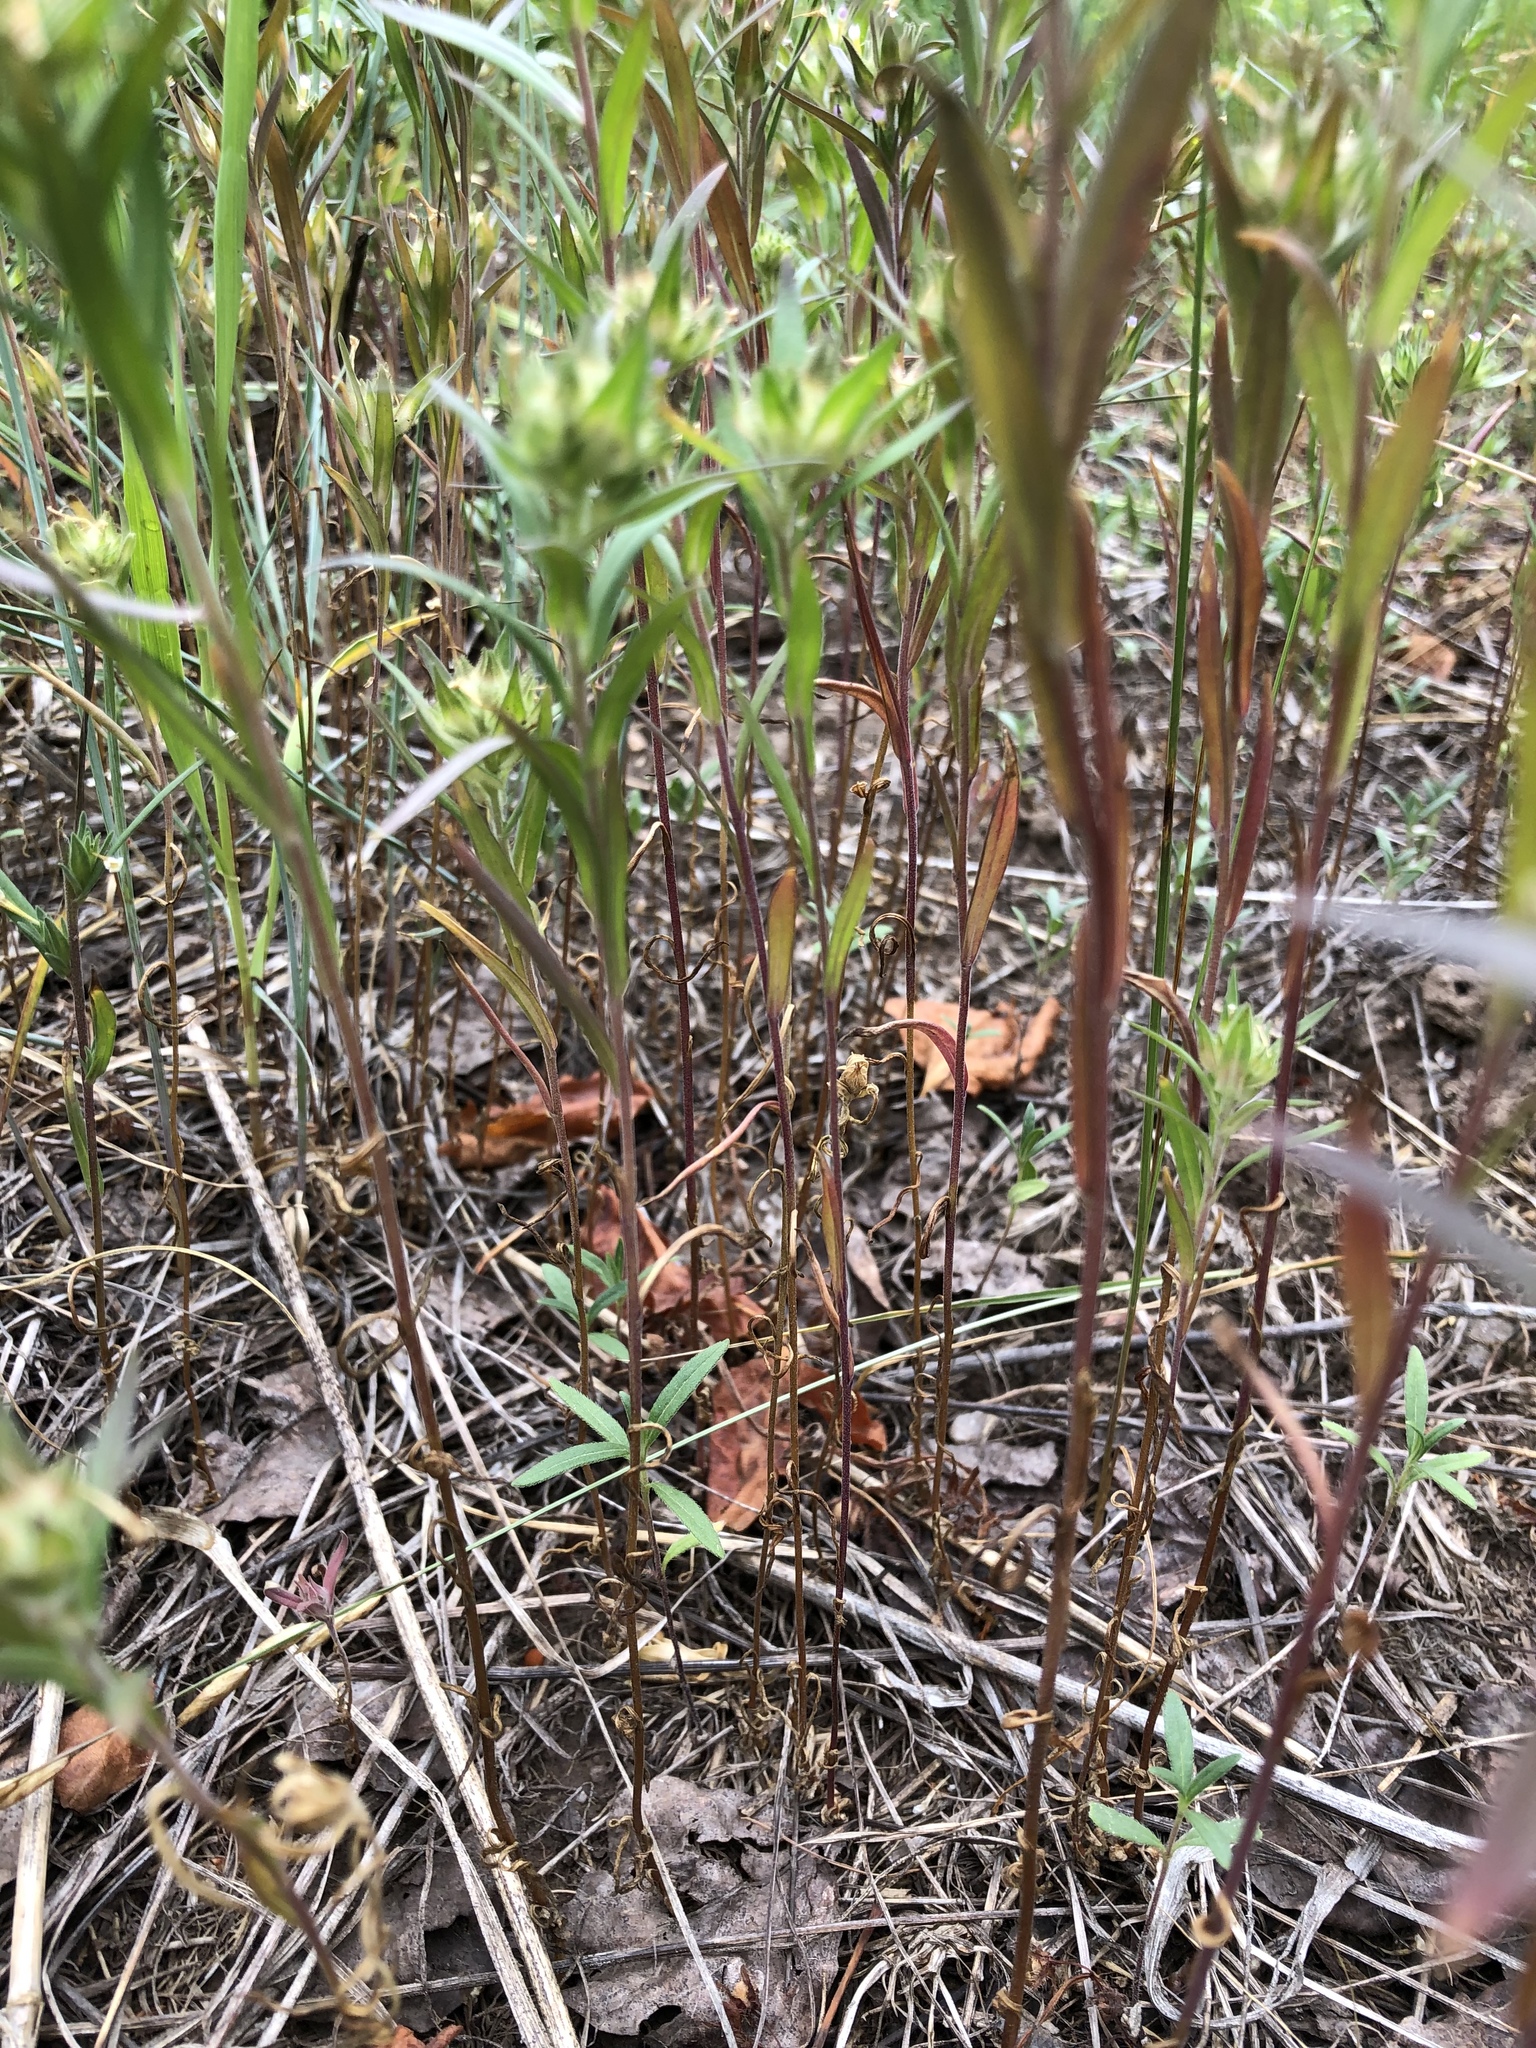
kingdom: Plantae
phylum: Tracheophyta
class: Magnoliopsida
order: Ericales
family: Polemoniaceae
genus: Collomia
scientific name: Collomia linearis
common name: Tiny trumpet
